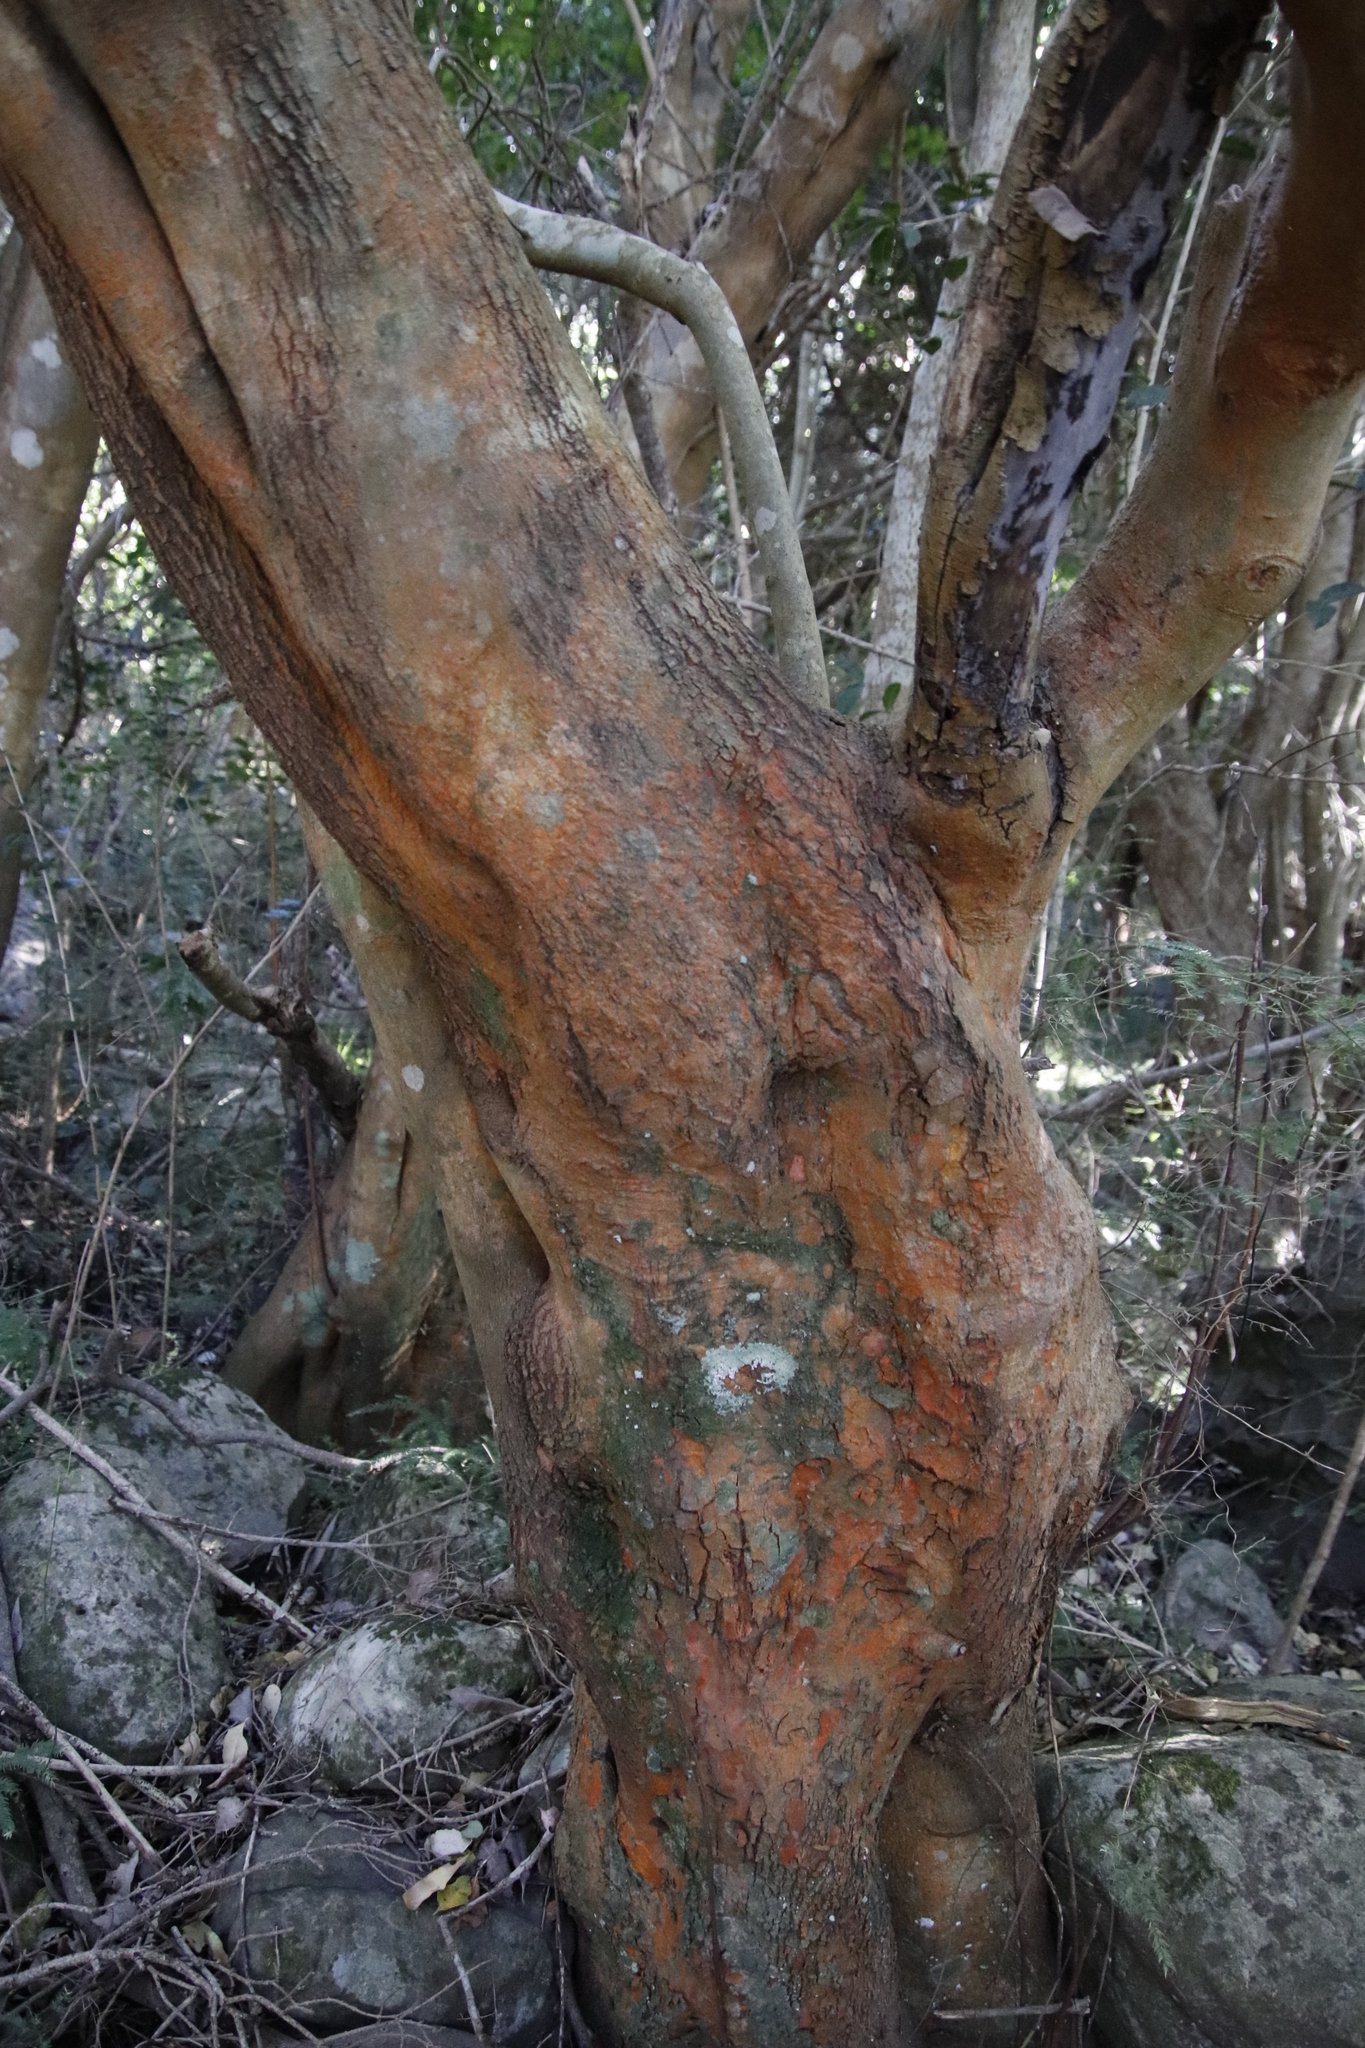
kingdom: Plantae
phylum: Tracheophyta
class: Magnoliopsida
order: Celastrales
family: Celastraceae
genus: Cassine
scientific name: Cassine peragua
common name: Cape saffron
